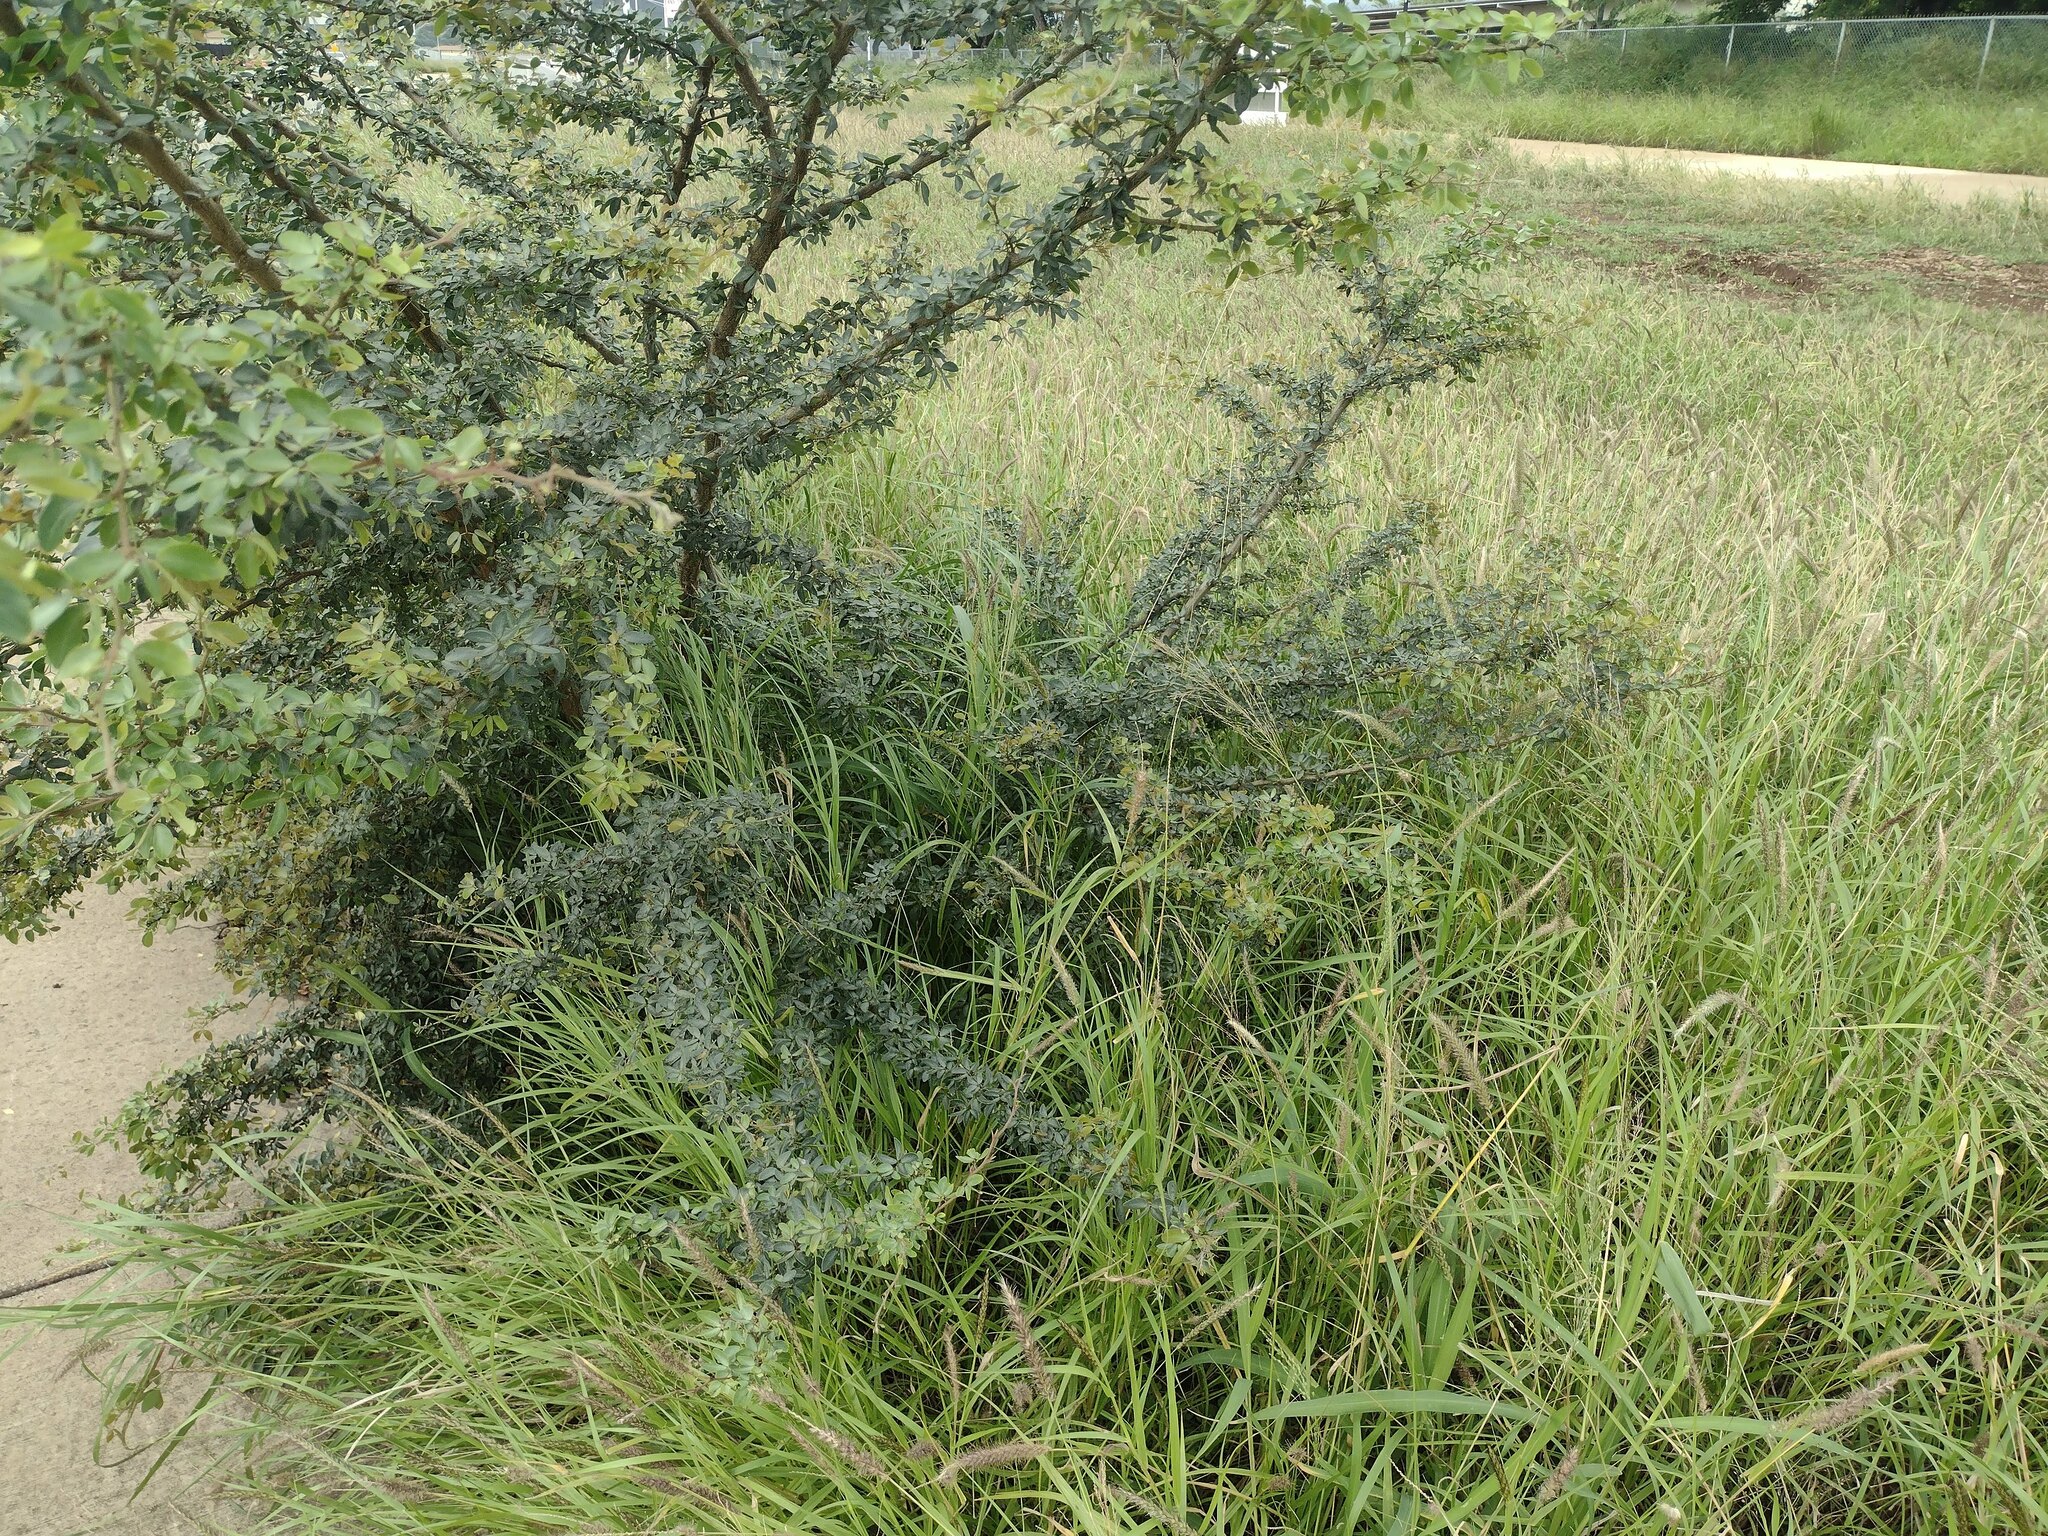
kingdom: Plantae
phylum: Tracheophyta
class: Magnoliopsida
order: Fabales
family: Fabaceae
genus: Pithecellobium
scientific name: Pithecellobium dulce
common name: Monkeypod
